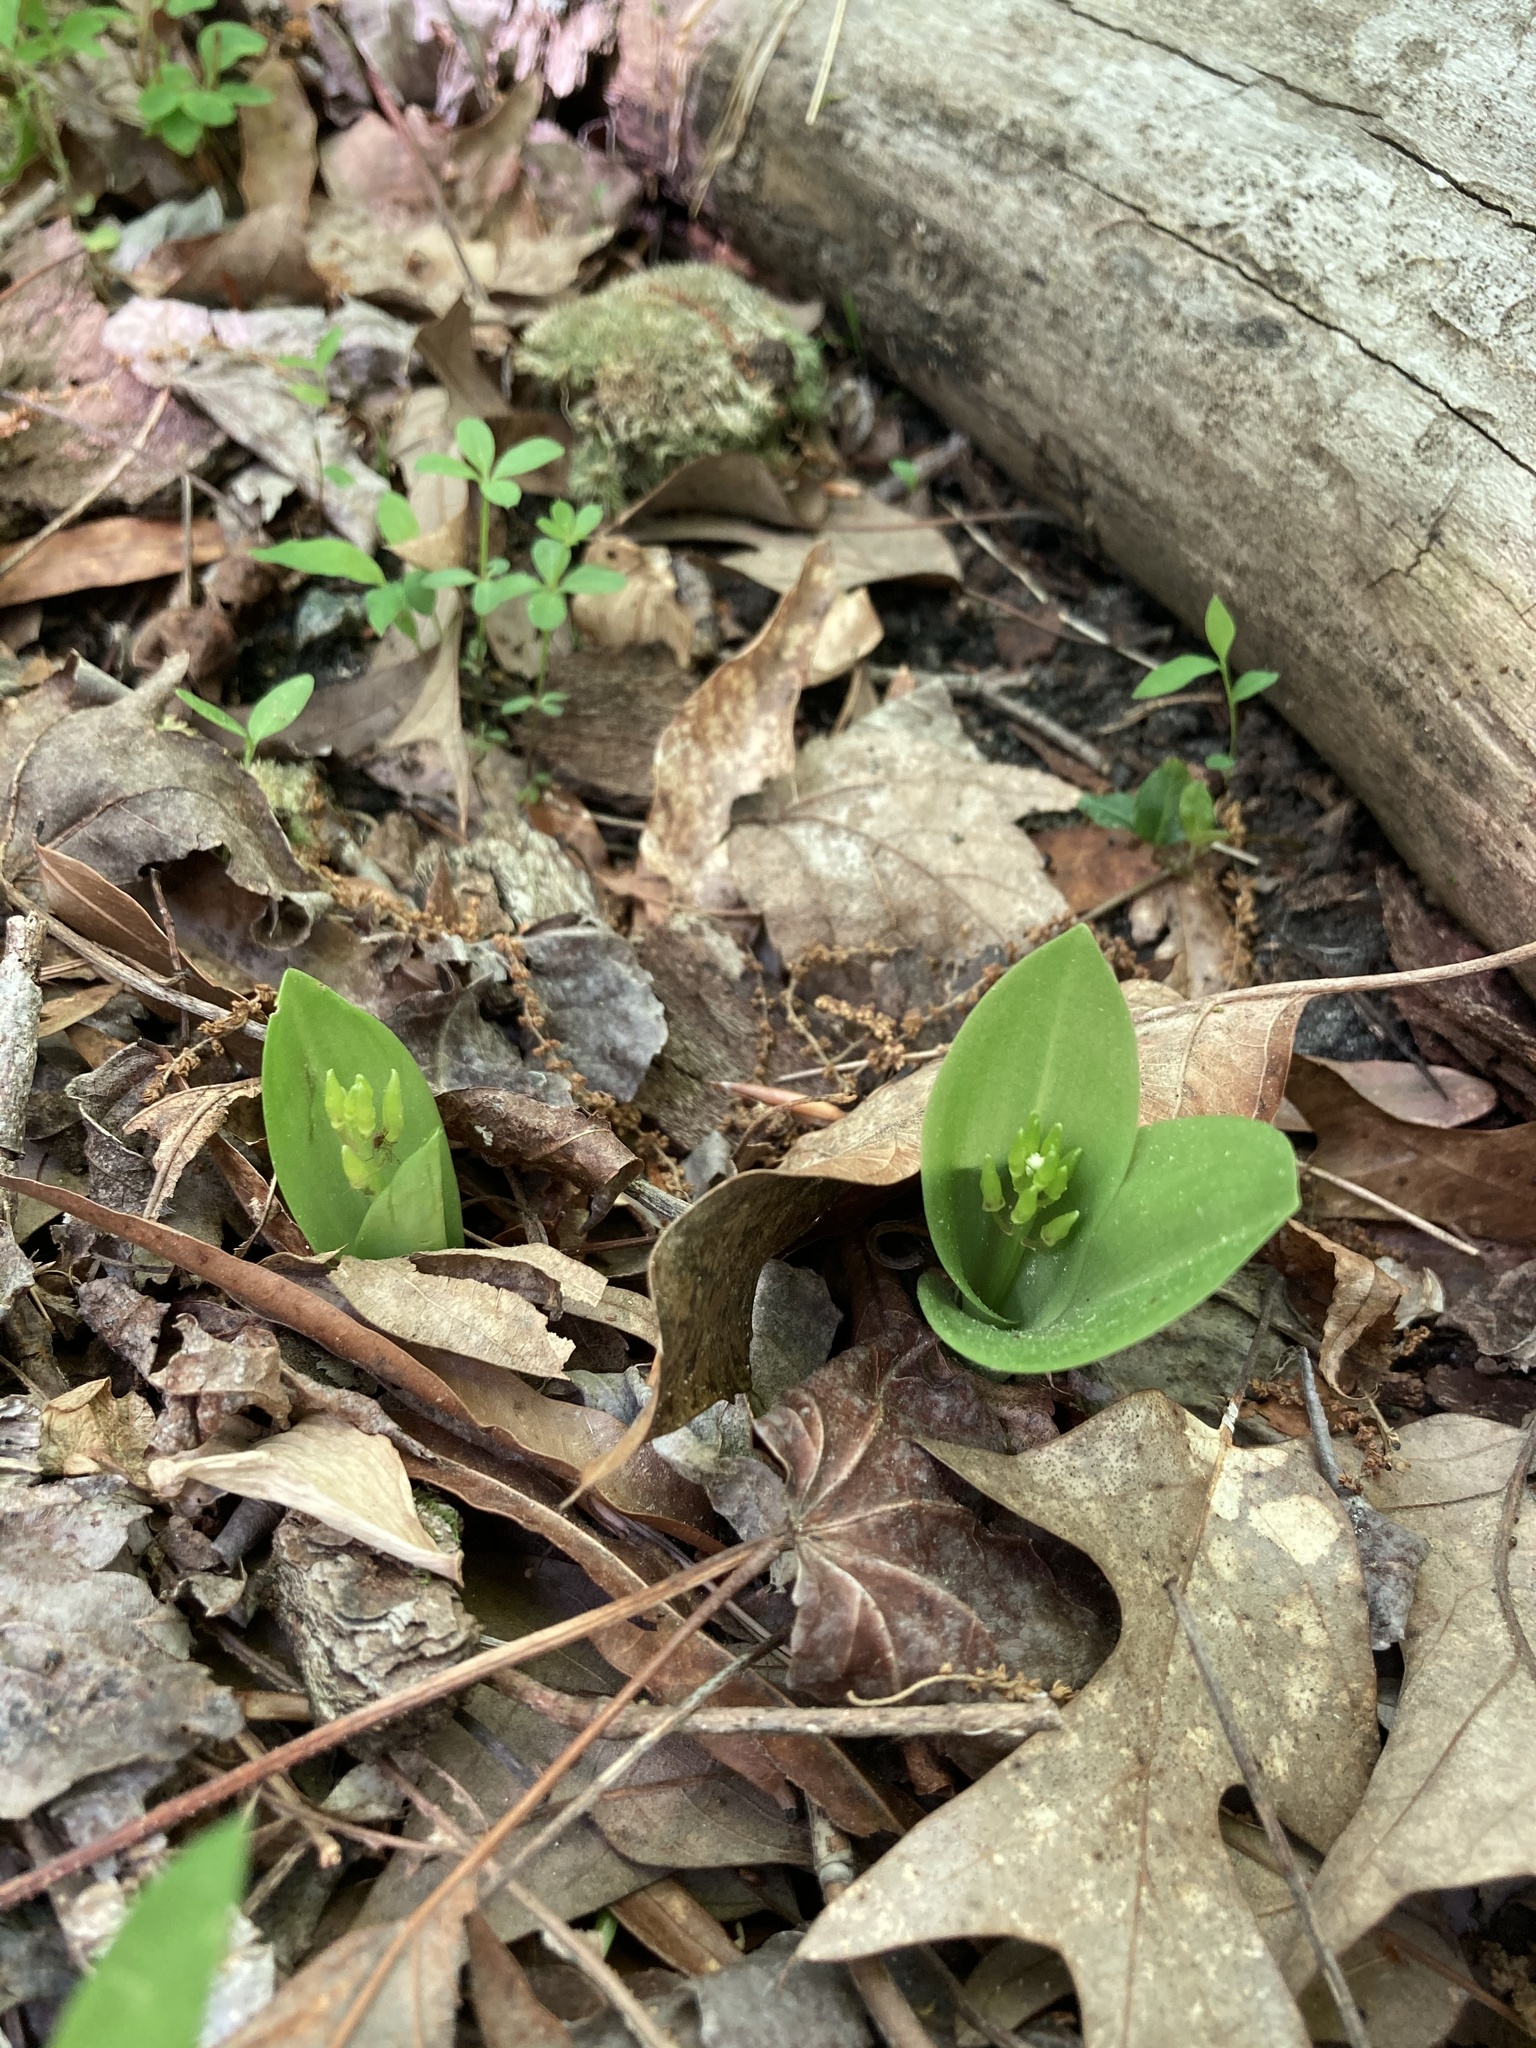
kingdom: Plantae
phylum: Tracheophyta
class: Liliopsida
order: Asparagales
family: Orchidaceae
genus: Liparis
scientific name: Liparis liliifolia
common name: Brown wide-lip orchid
